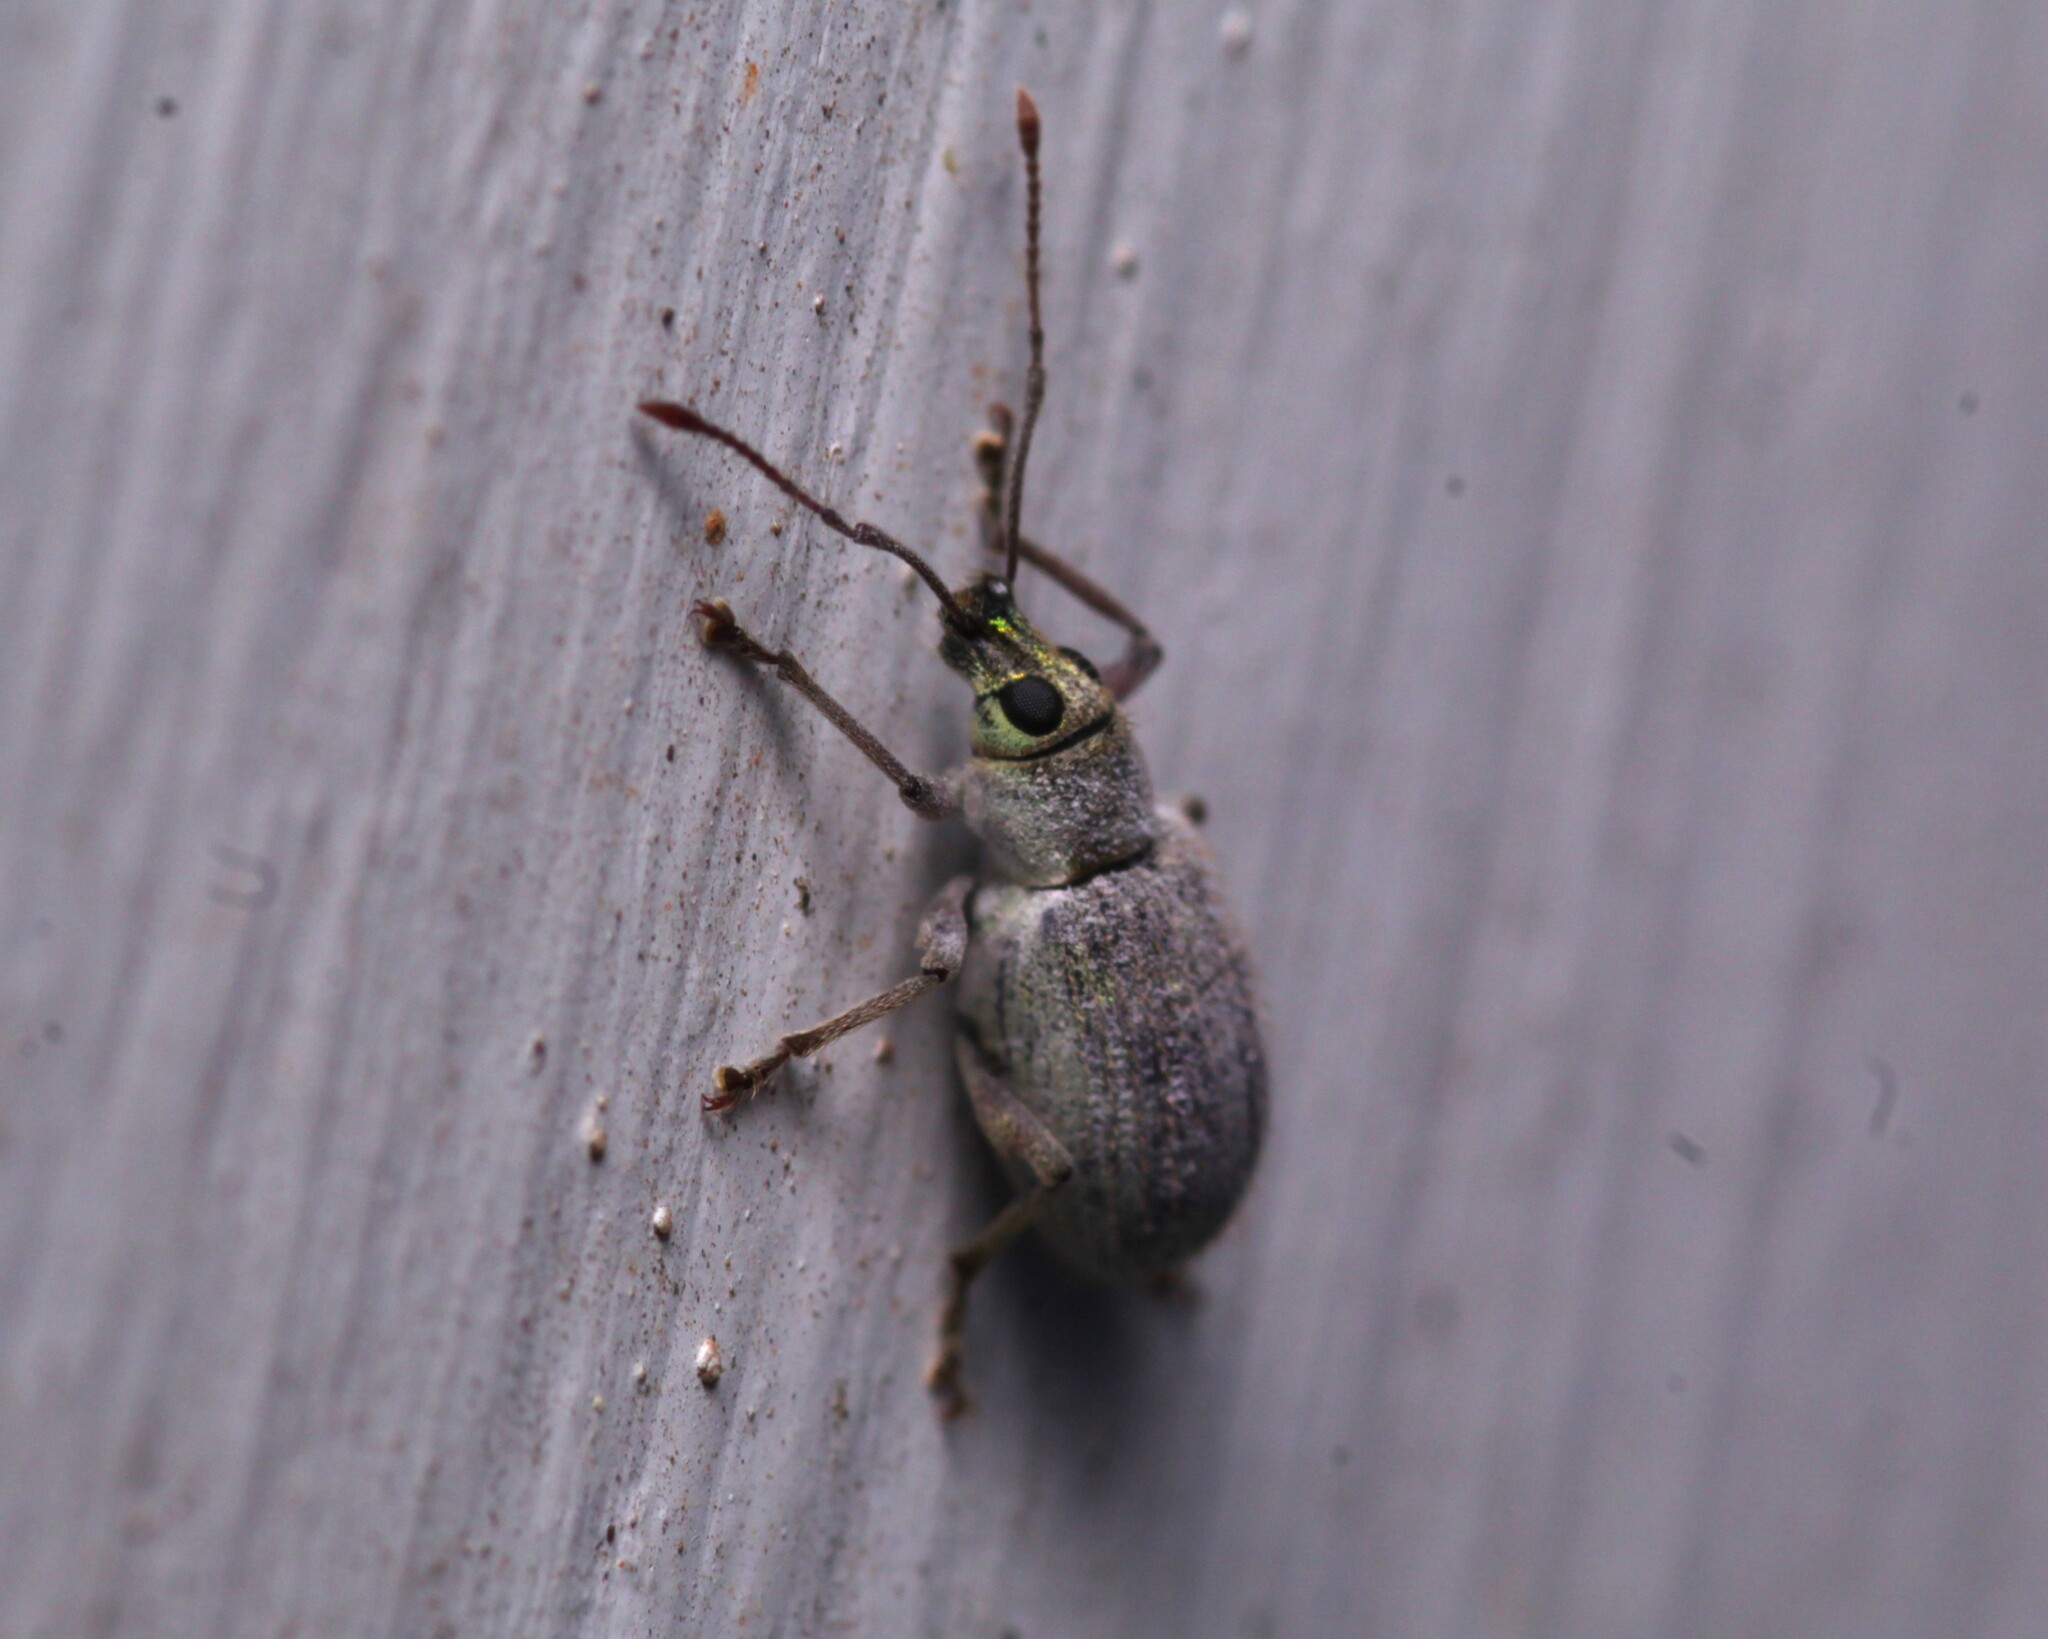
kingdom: Animalia
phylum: Arthropoda
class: Insecta
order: Coleoptera
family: Curculionidae
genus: Cyrtepistomus
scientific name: Cyrtepistomus castaneus
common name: Weevil
